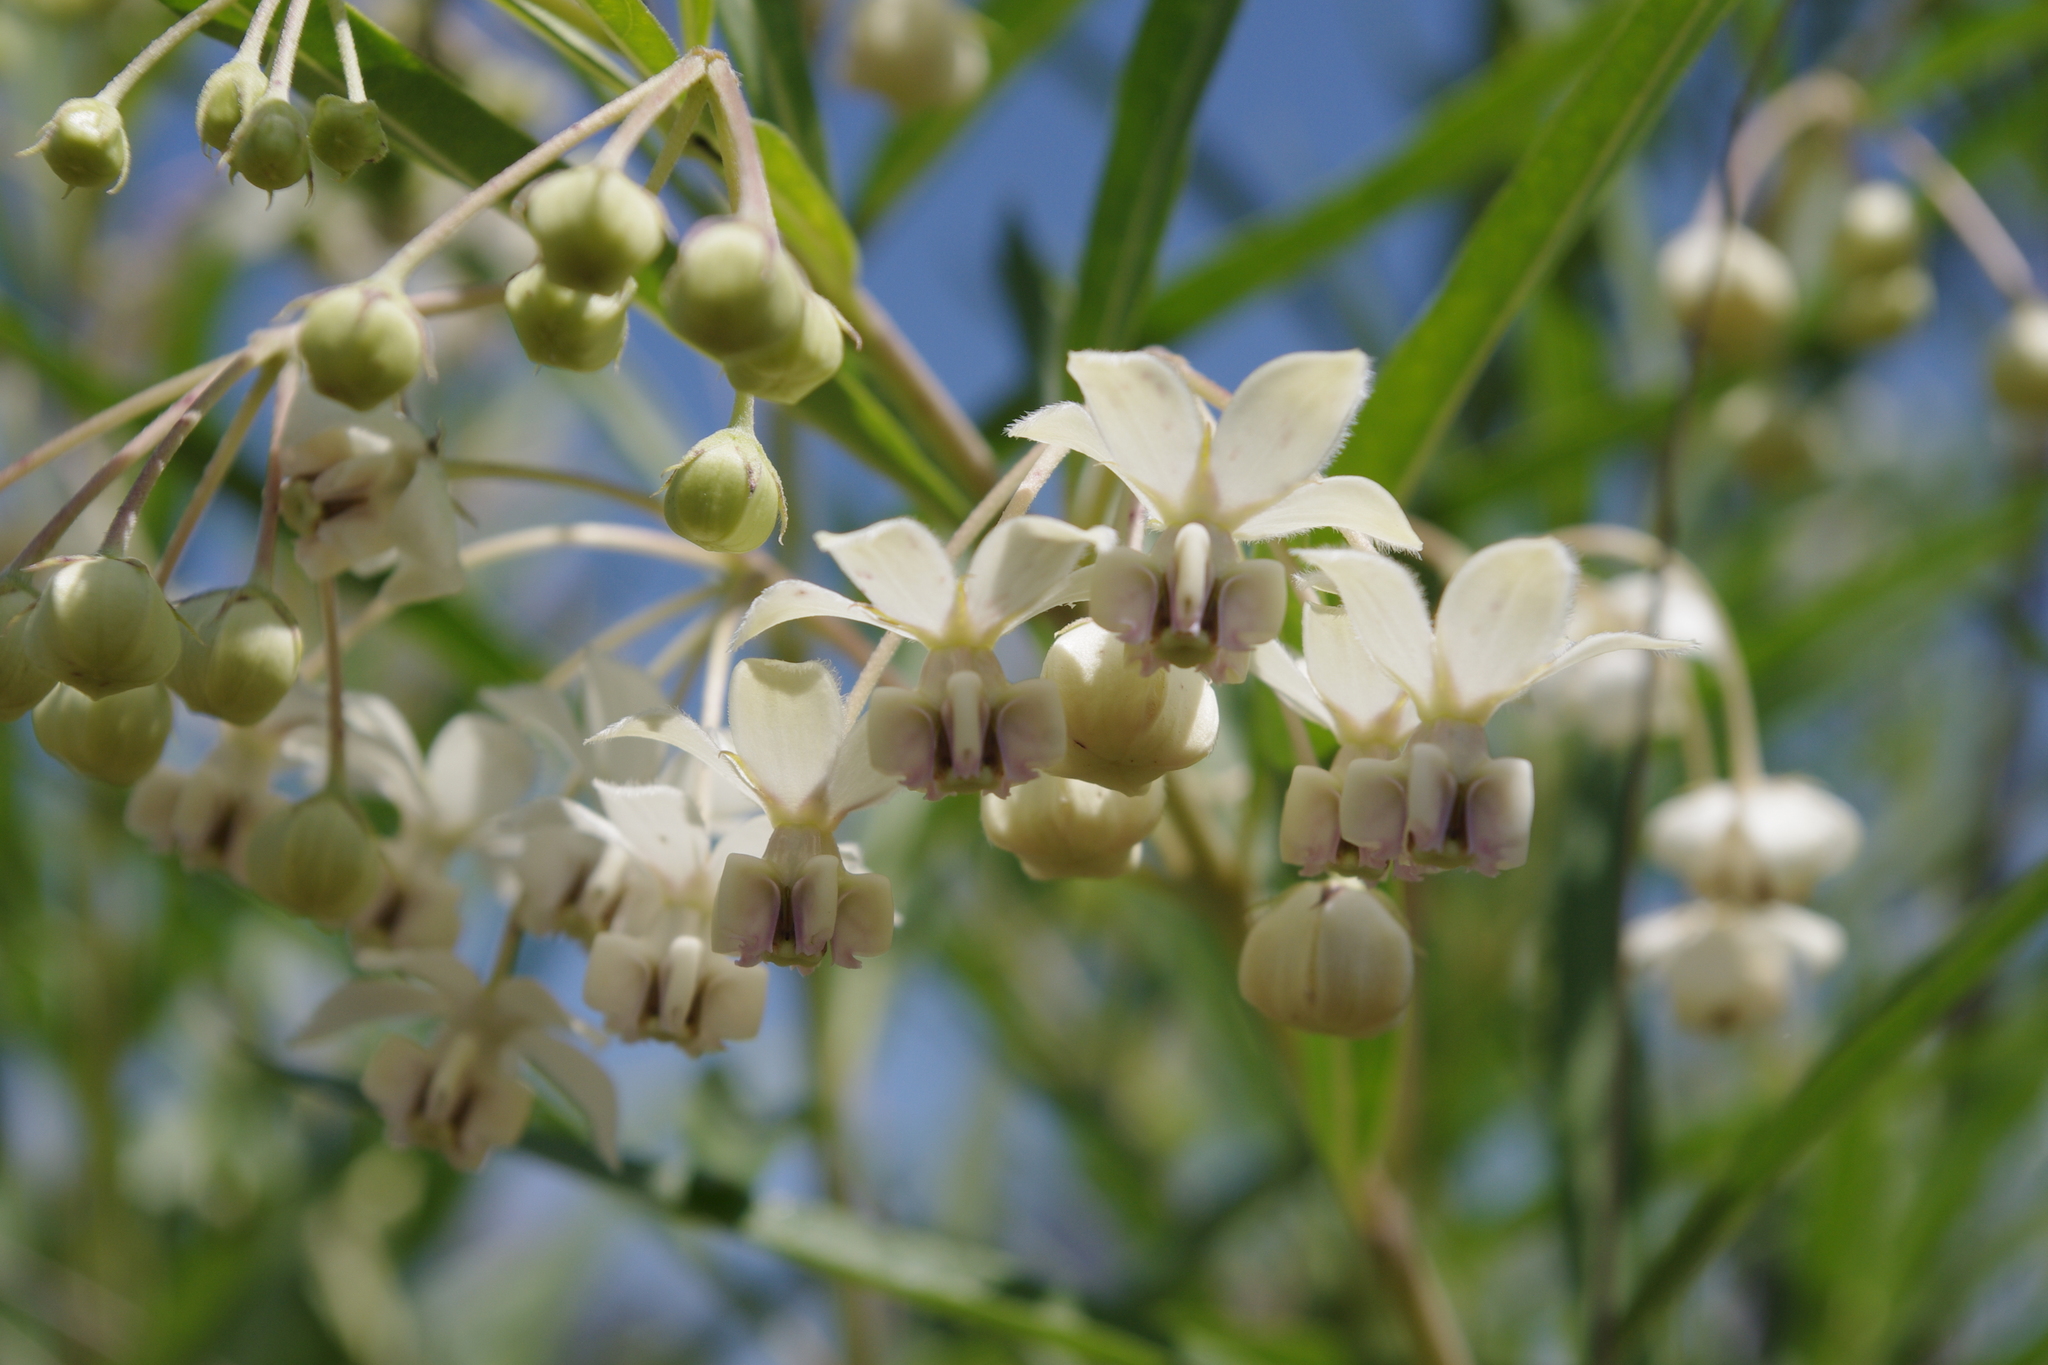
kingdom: Plantae
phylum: Tracheophyta
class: Magnoliopsida
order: Gentianales
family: Apocynaceae
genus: Gomphocarpus
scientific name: Gomphocarpus physocarpus
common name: Balloon cotton bush
